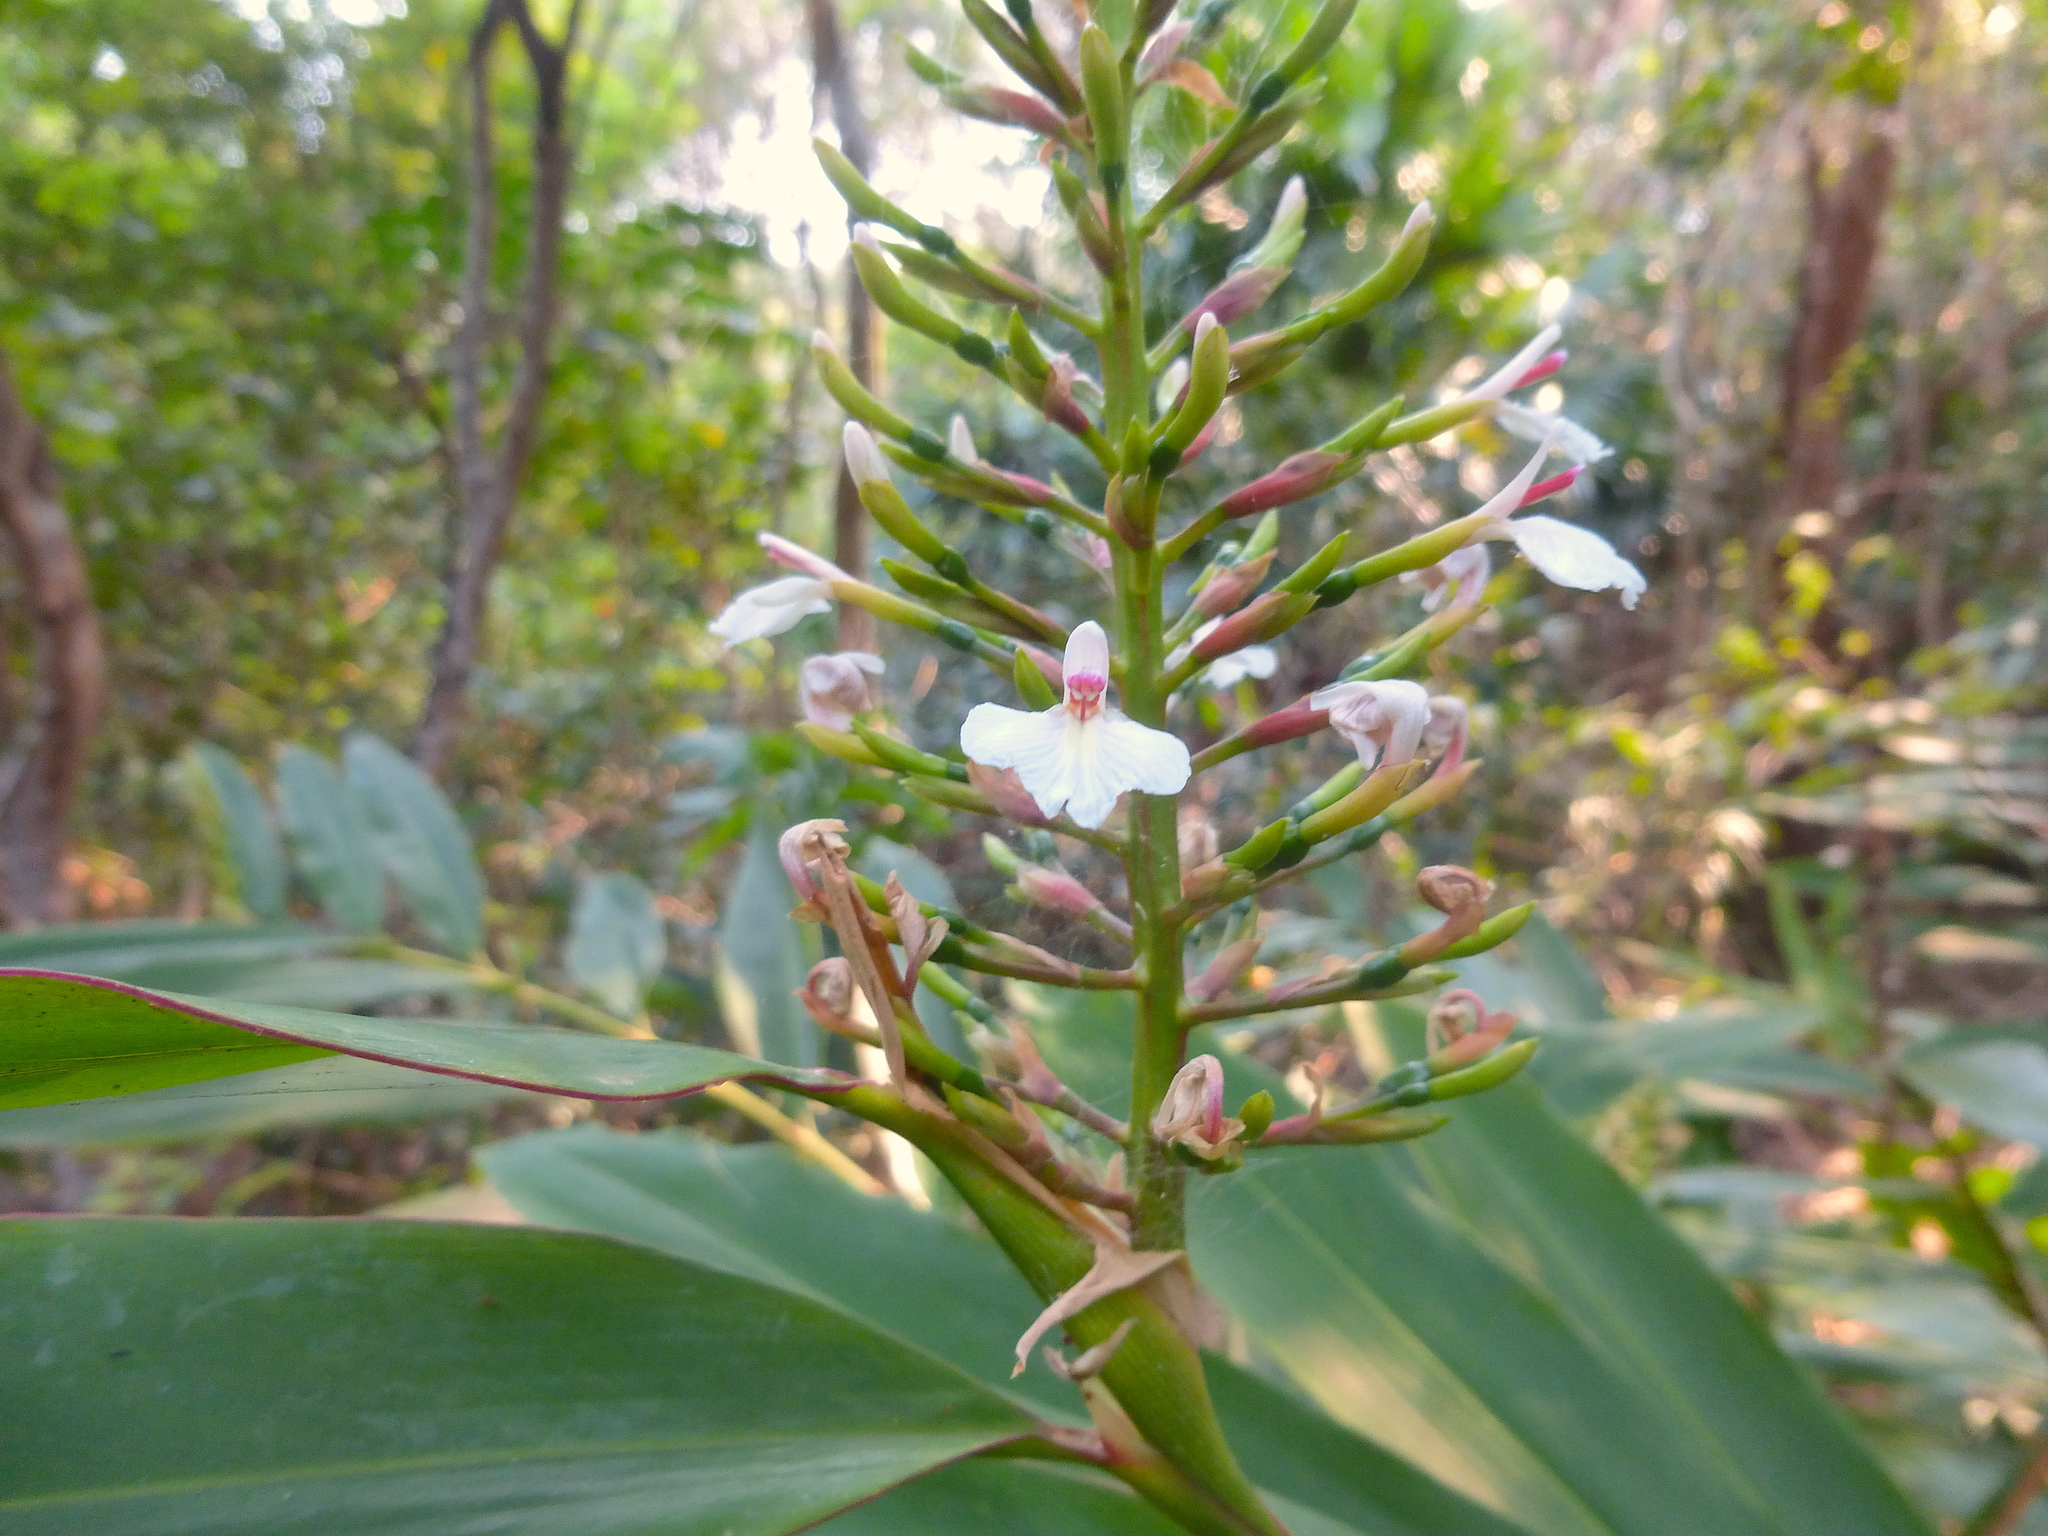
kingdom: Plantae
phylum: Tracheophyta
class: Liliopsida
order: Zingiberales
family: Zingiberaceae
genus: Alpinia
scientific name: Alpinia caerulea
